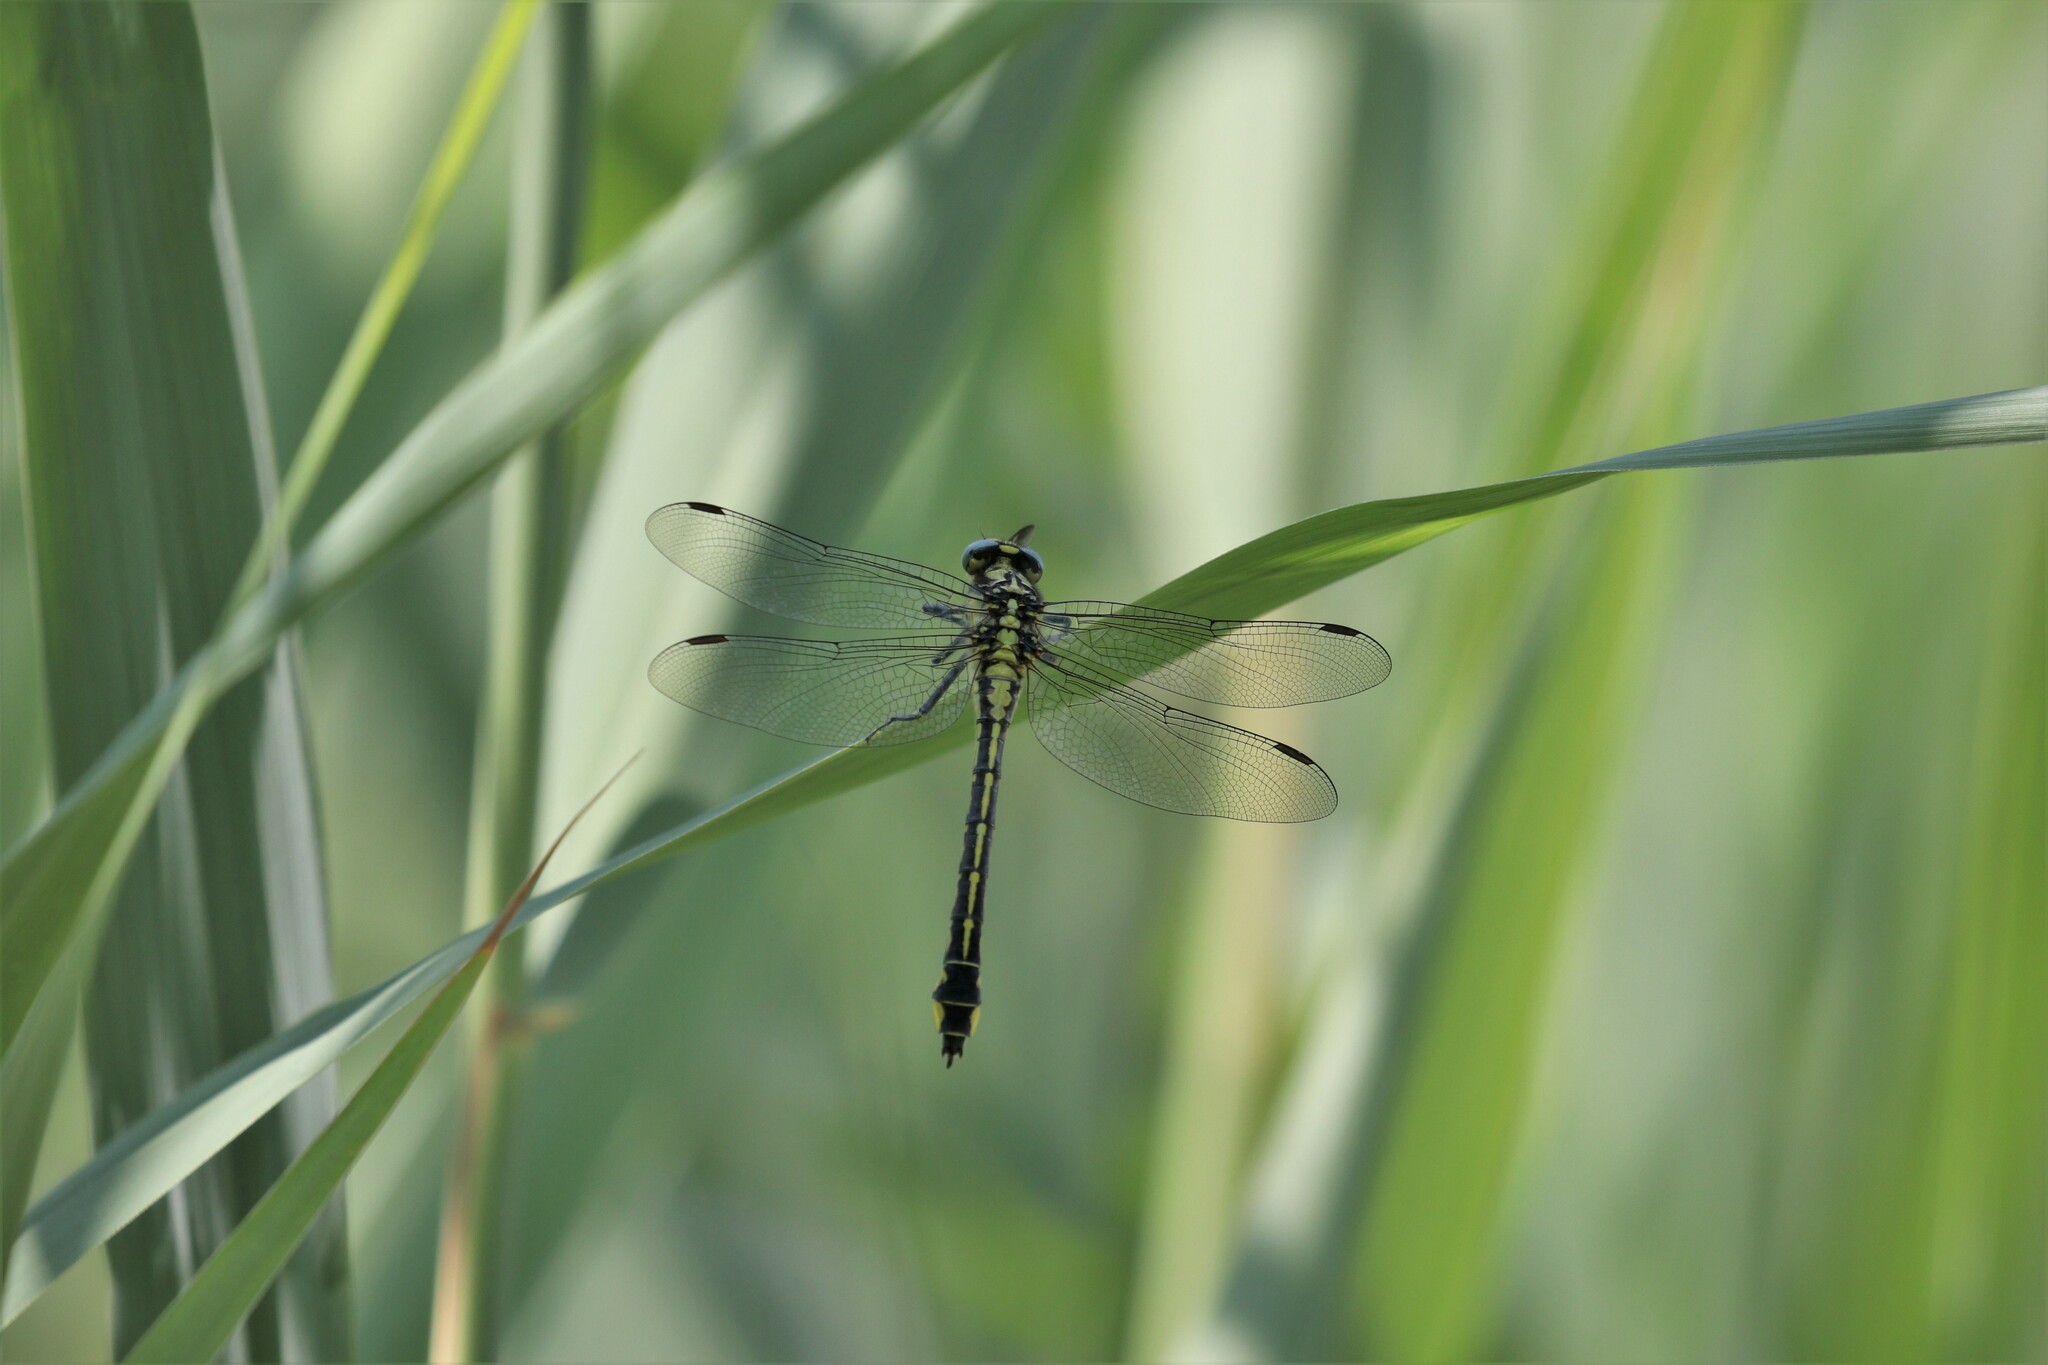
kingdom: Animalia
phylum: Arthropoda
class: Insecta
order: Odonata
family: Gomphidae
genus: Gomphus
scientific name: Gomphus vulgatissimus
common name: Club-tailed dragonfly
